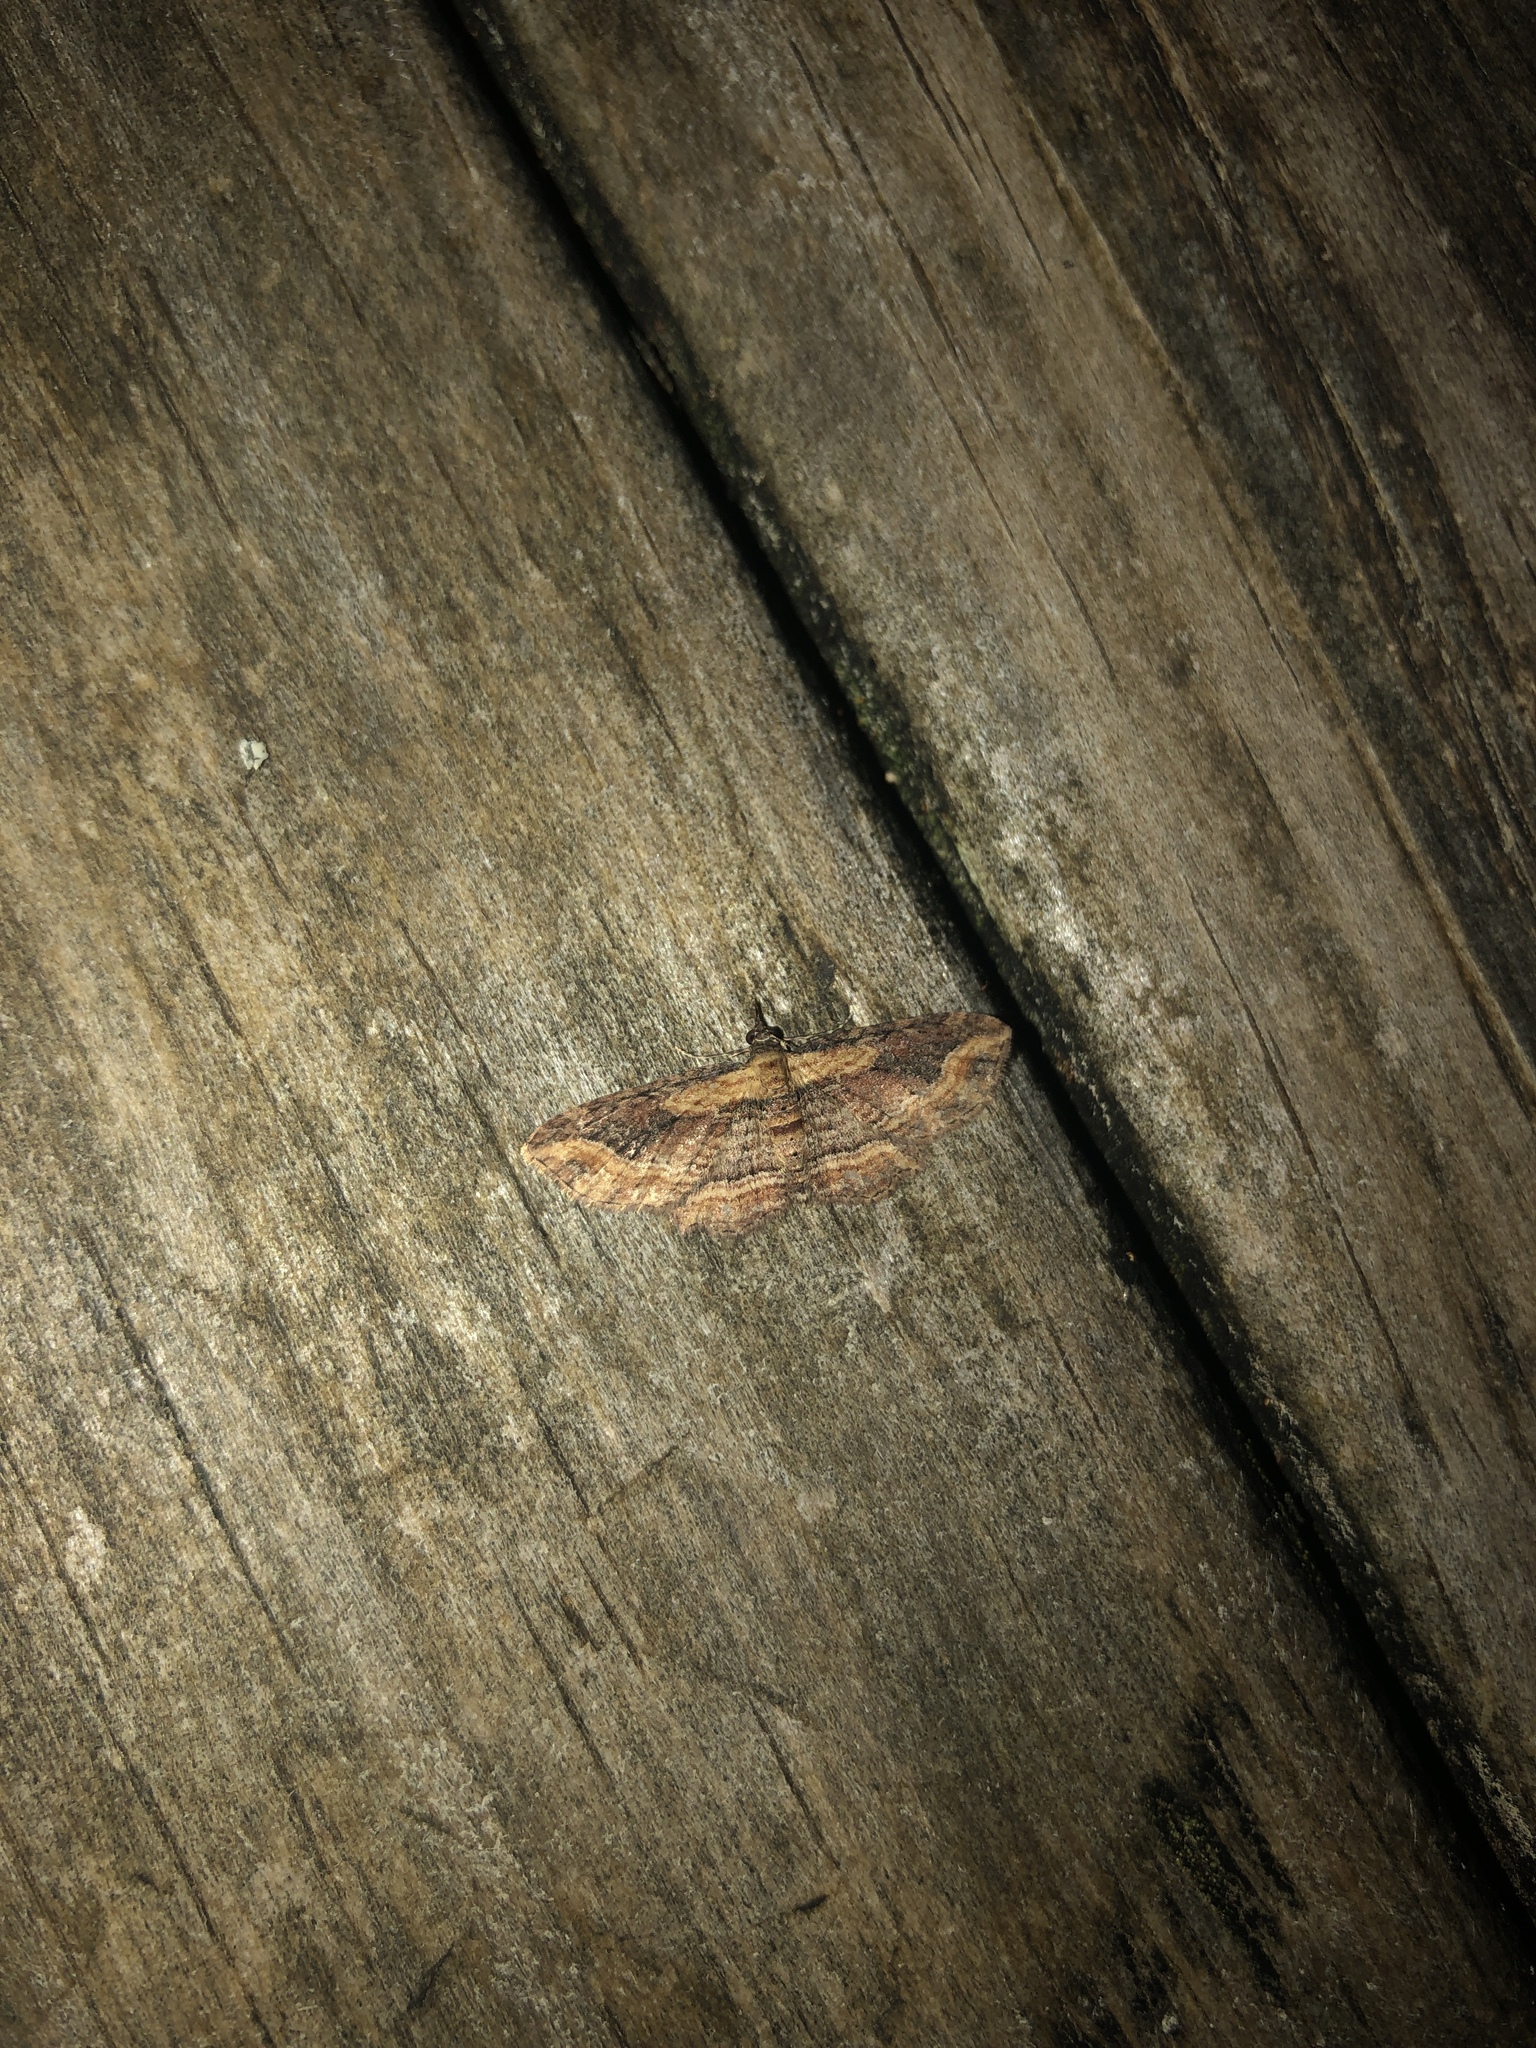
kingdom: Animalia
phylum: Arthropoda
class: Insecta
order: Lepidoptera
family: Geometridae
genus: Chloroclystis
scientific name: Chloroclystis filata
